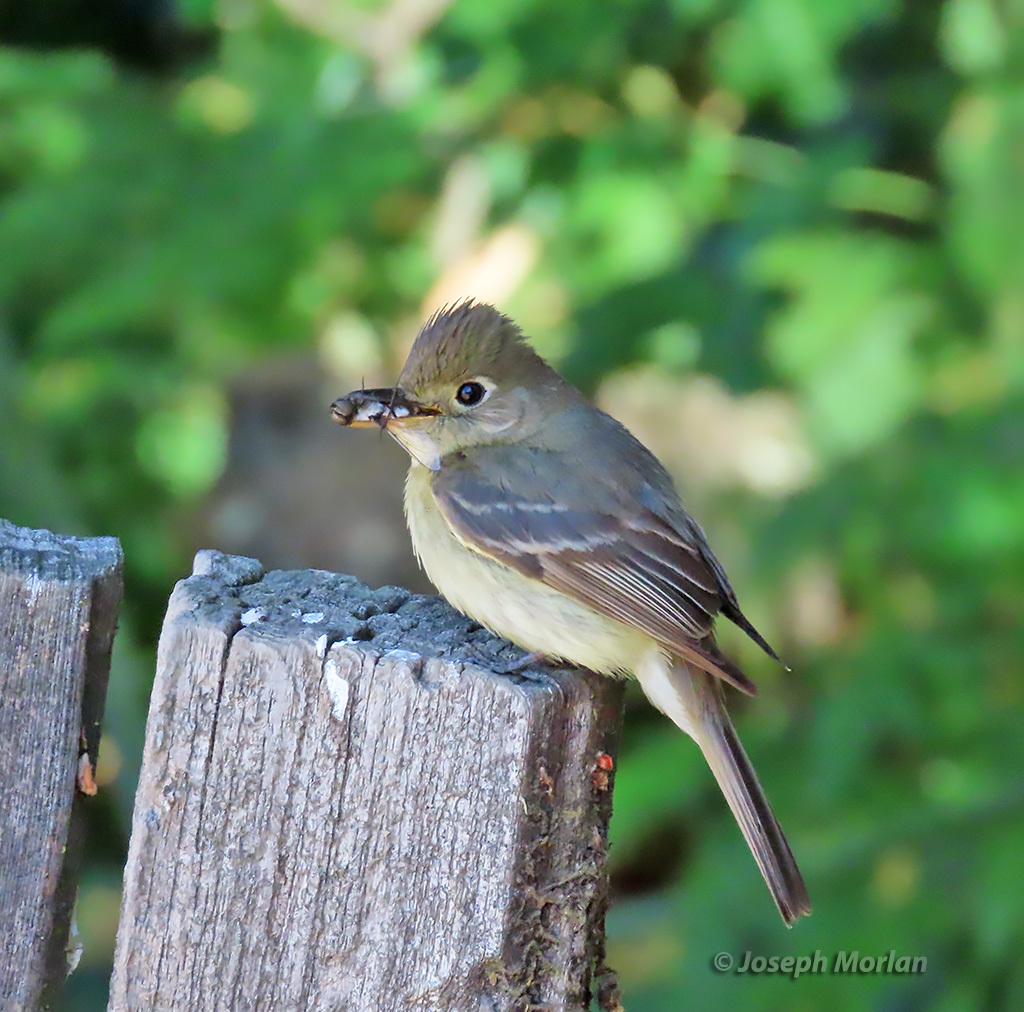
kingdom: Animalia
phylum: Chordata
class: Aves
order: Passeriformes
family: Tyrannidae
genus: Empidonax
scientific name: Empidonax difficilis
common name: Pacific-slope flycatcher
